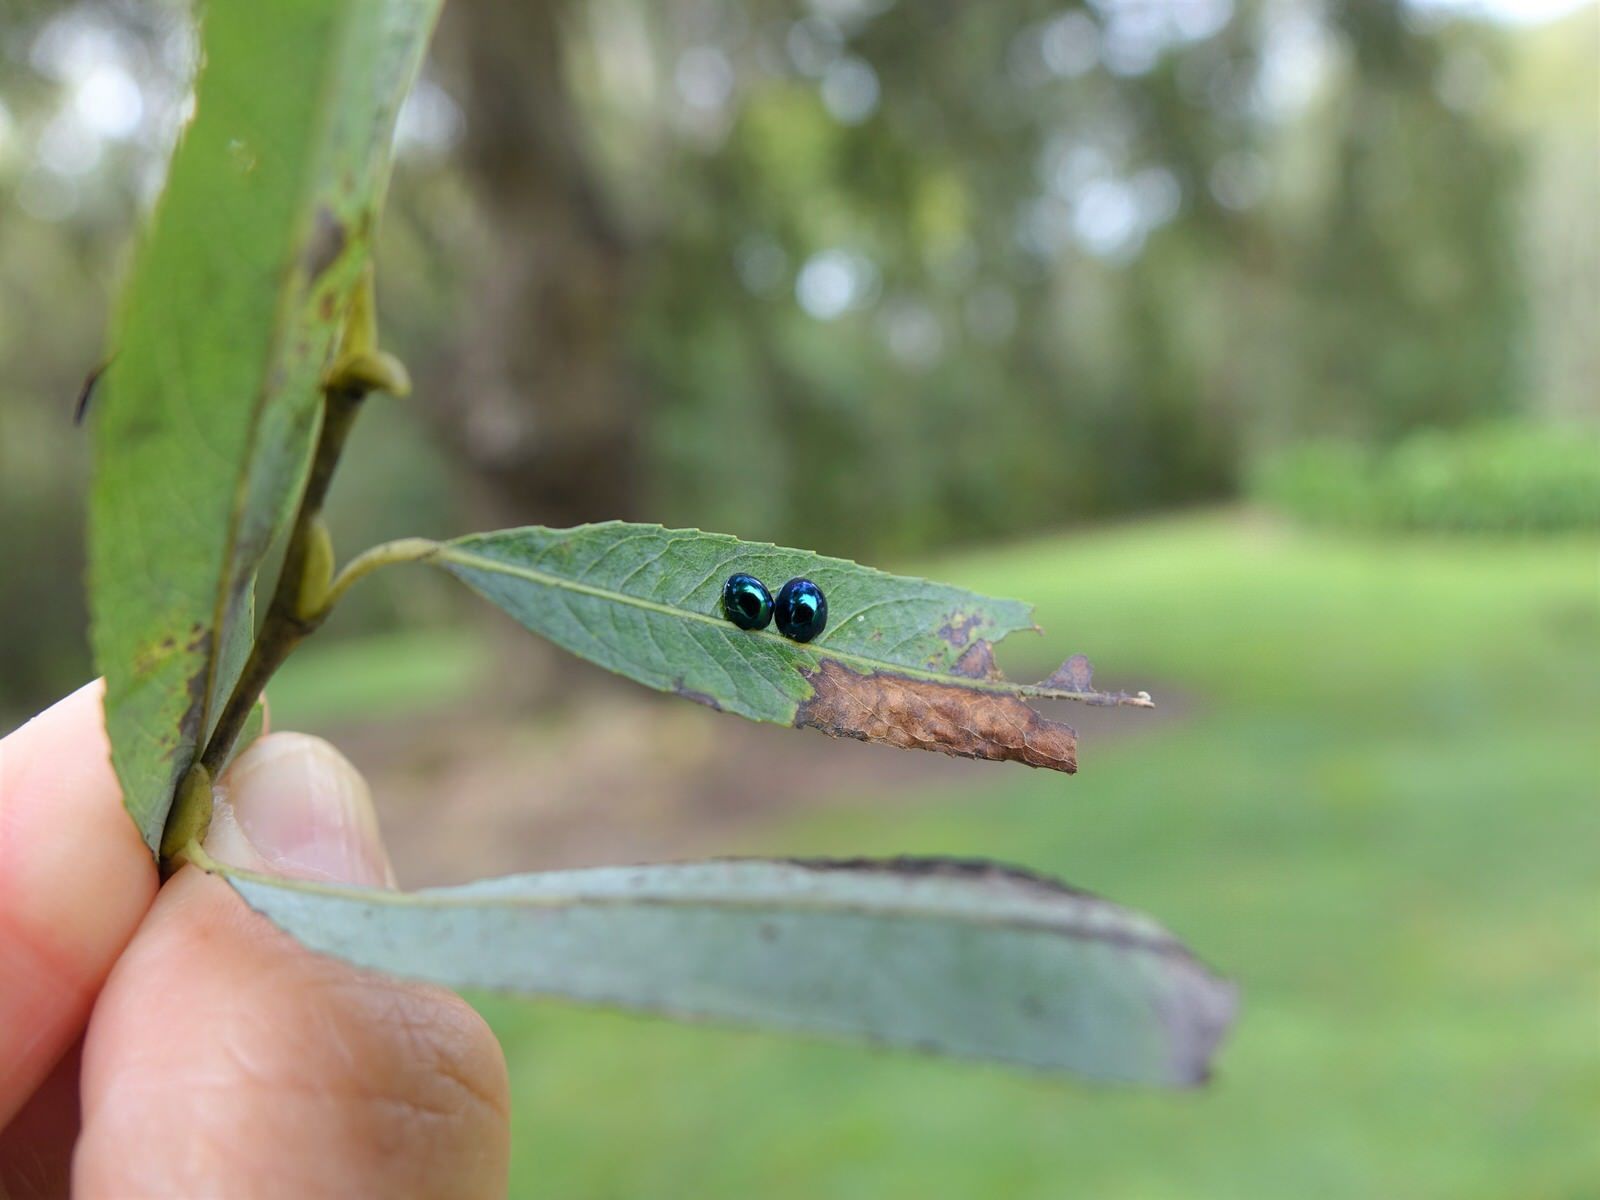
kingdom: Animalia
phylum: Arthropoda
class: Insecta
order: Coleoptera
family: Coccinellidae
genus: Halmus
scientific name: Halmus chalybeus
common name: Steel blue ladybird beetle
